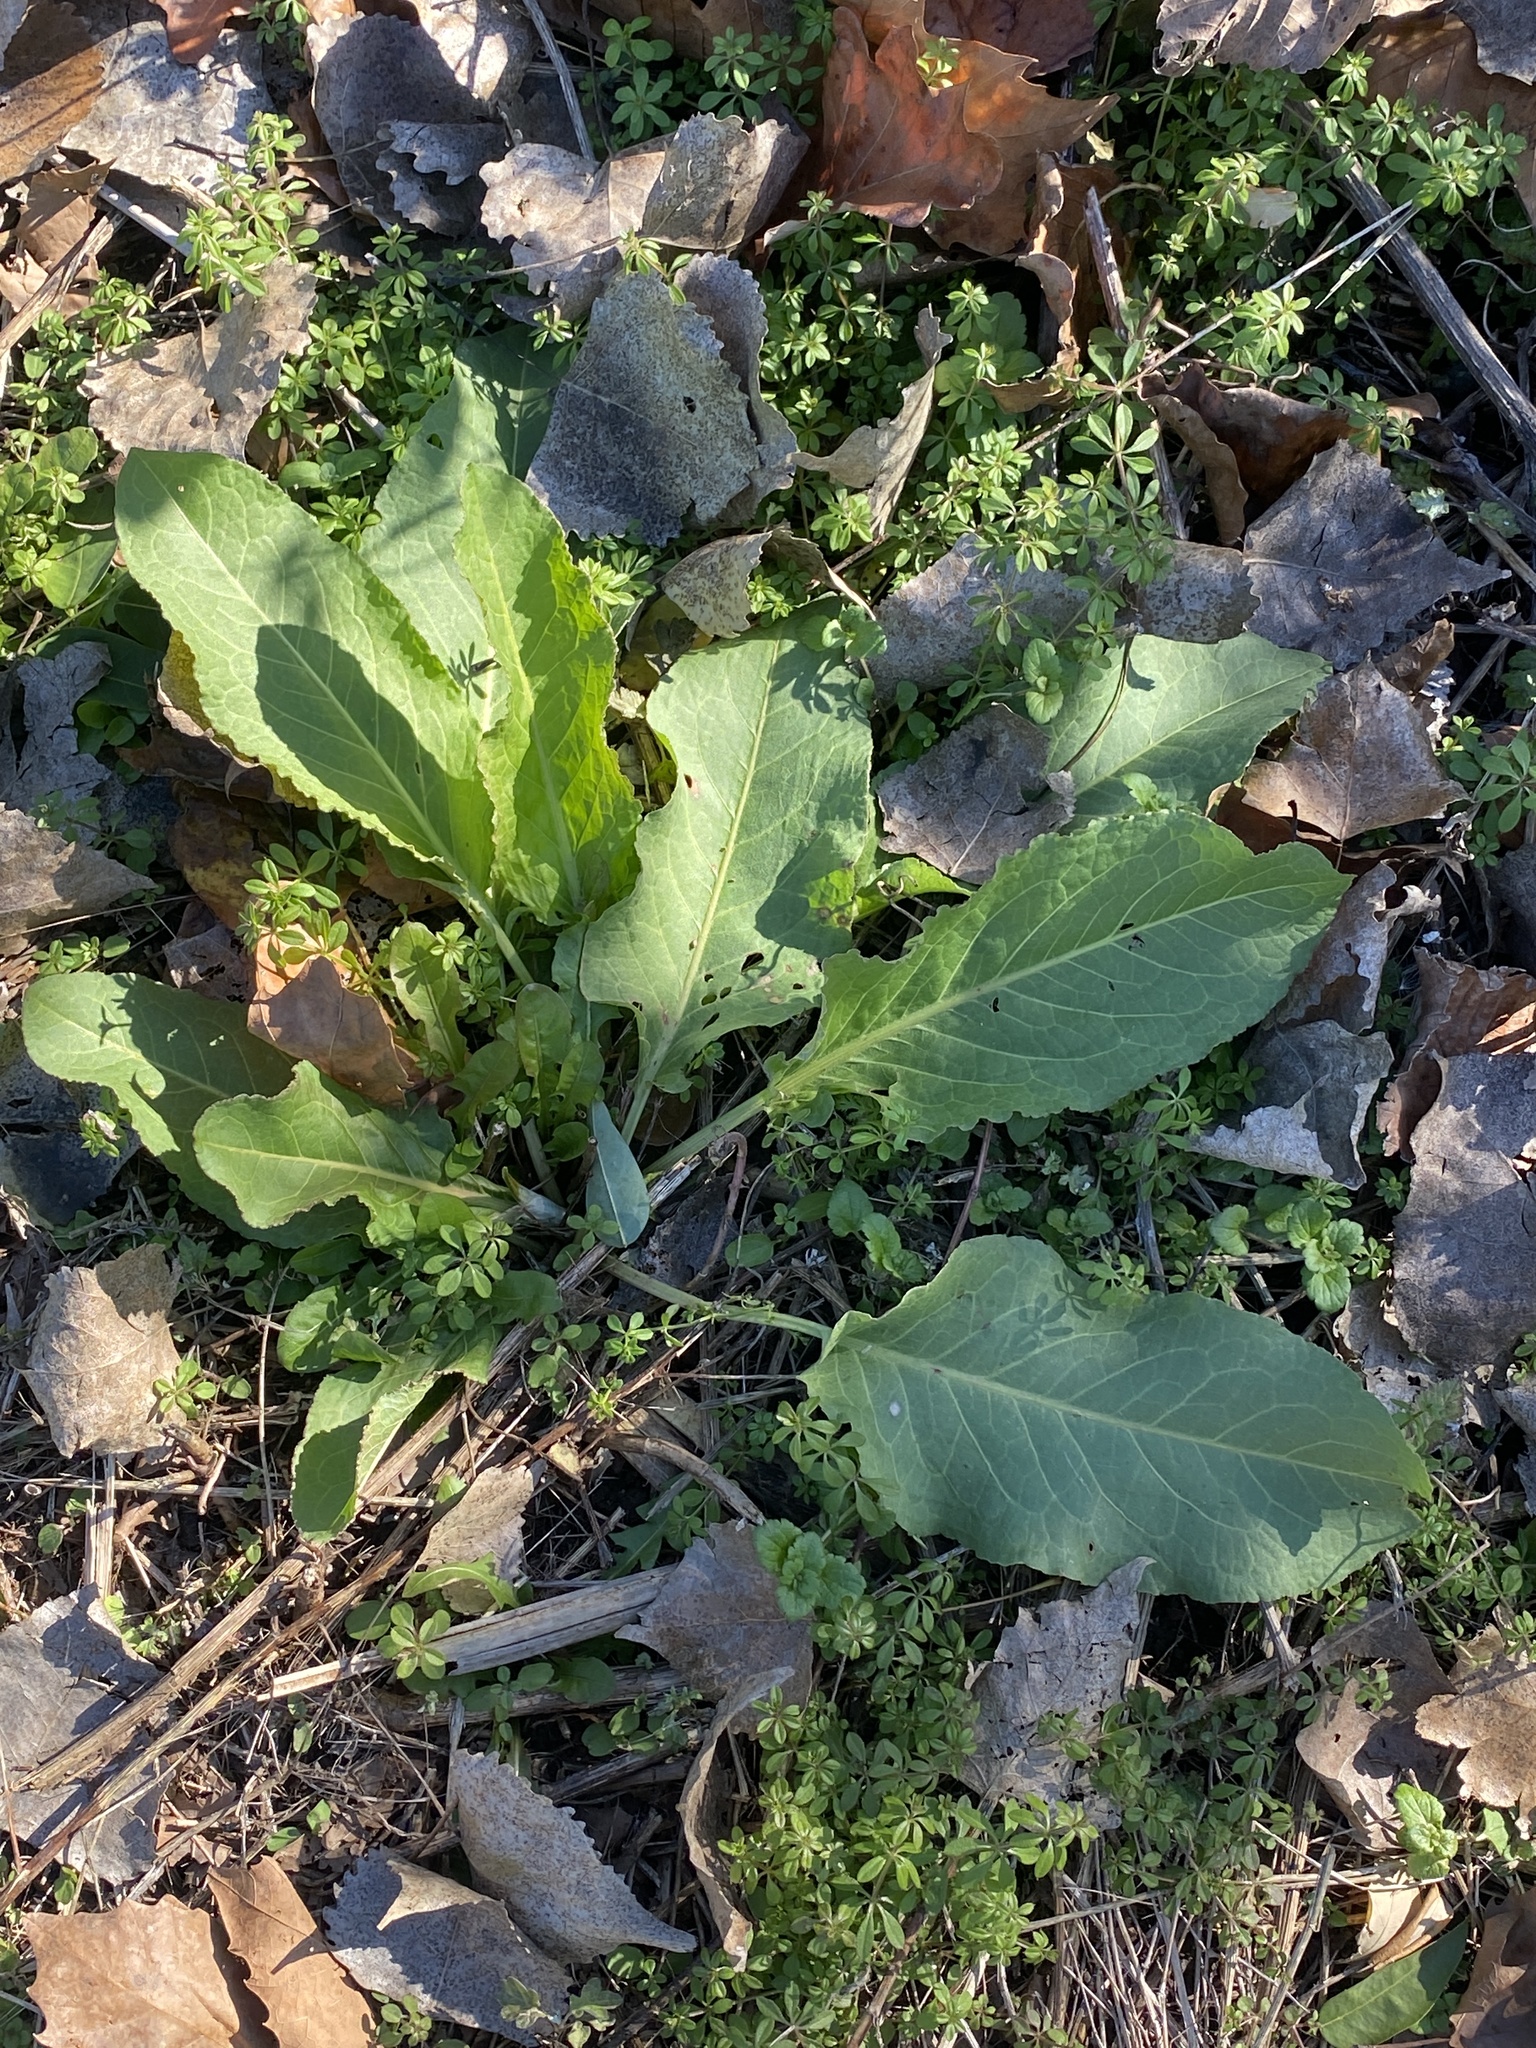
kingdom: Plantae
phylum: Tracheophyta
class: Magnoliopsida
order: Caryophyllales
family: Polygonaceae
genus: Rumex
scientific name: Rumex obtusifolius
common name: Bitter dock
